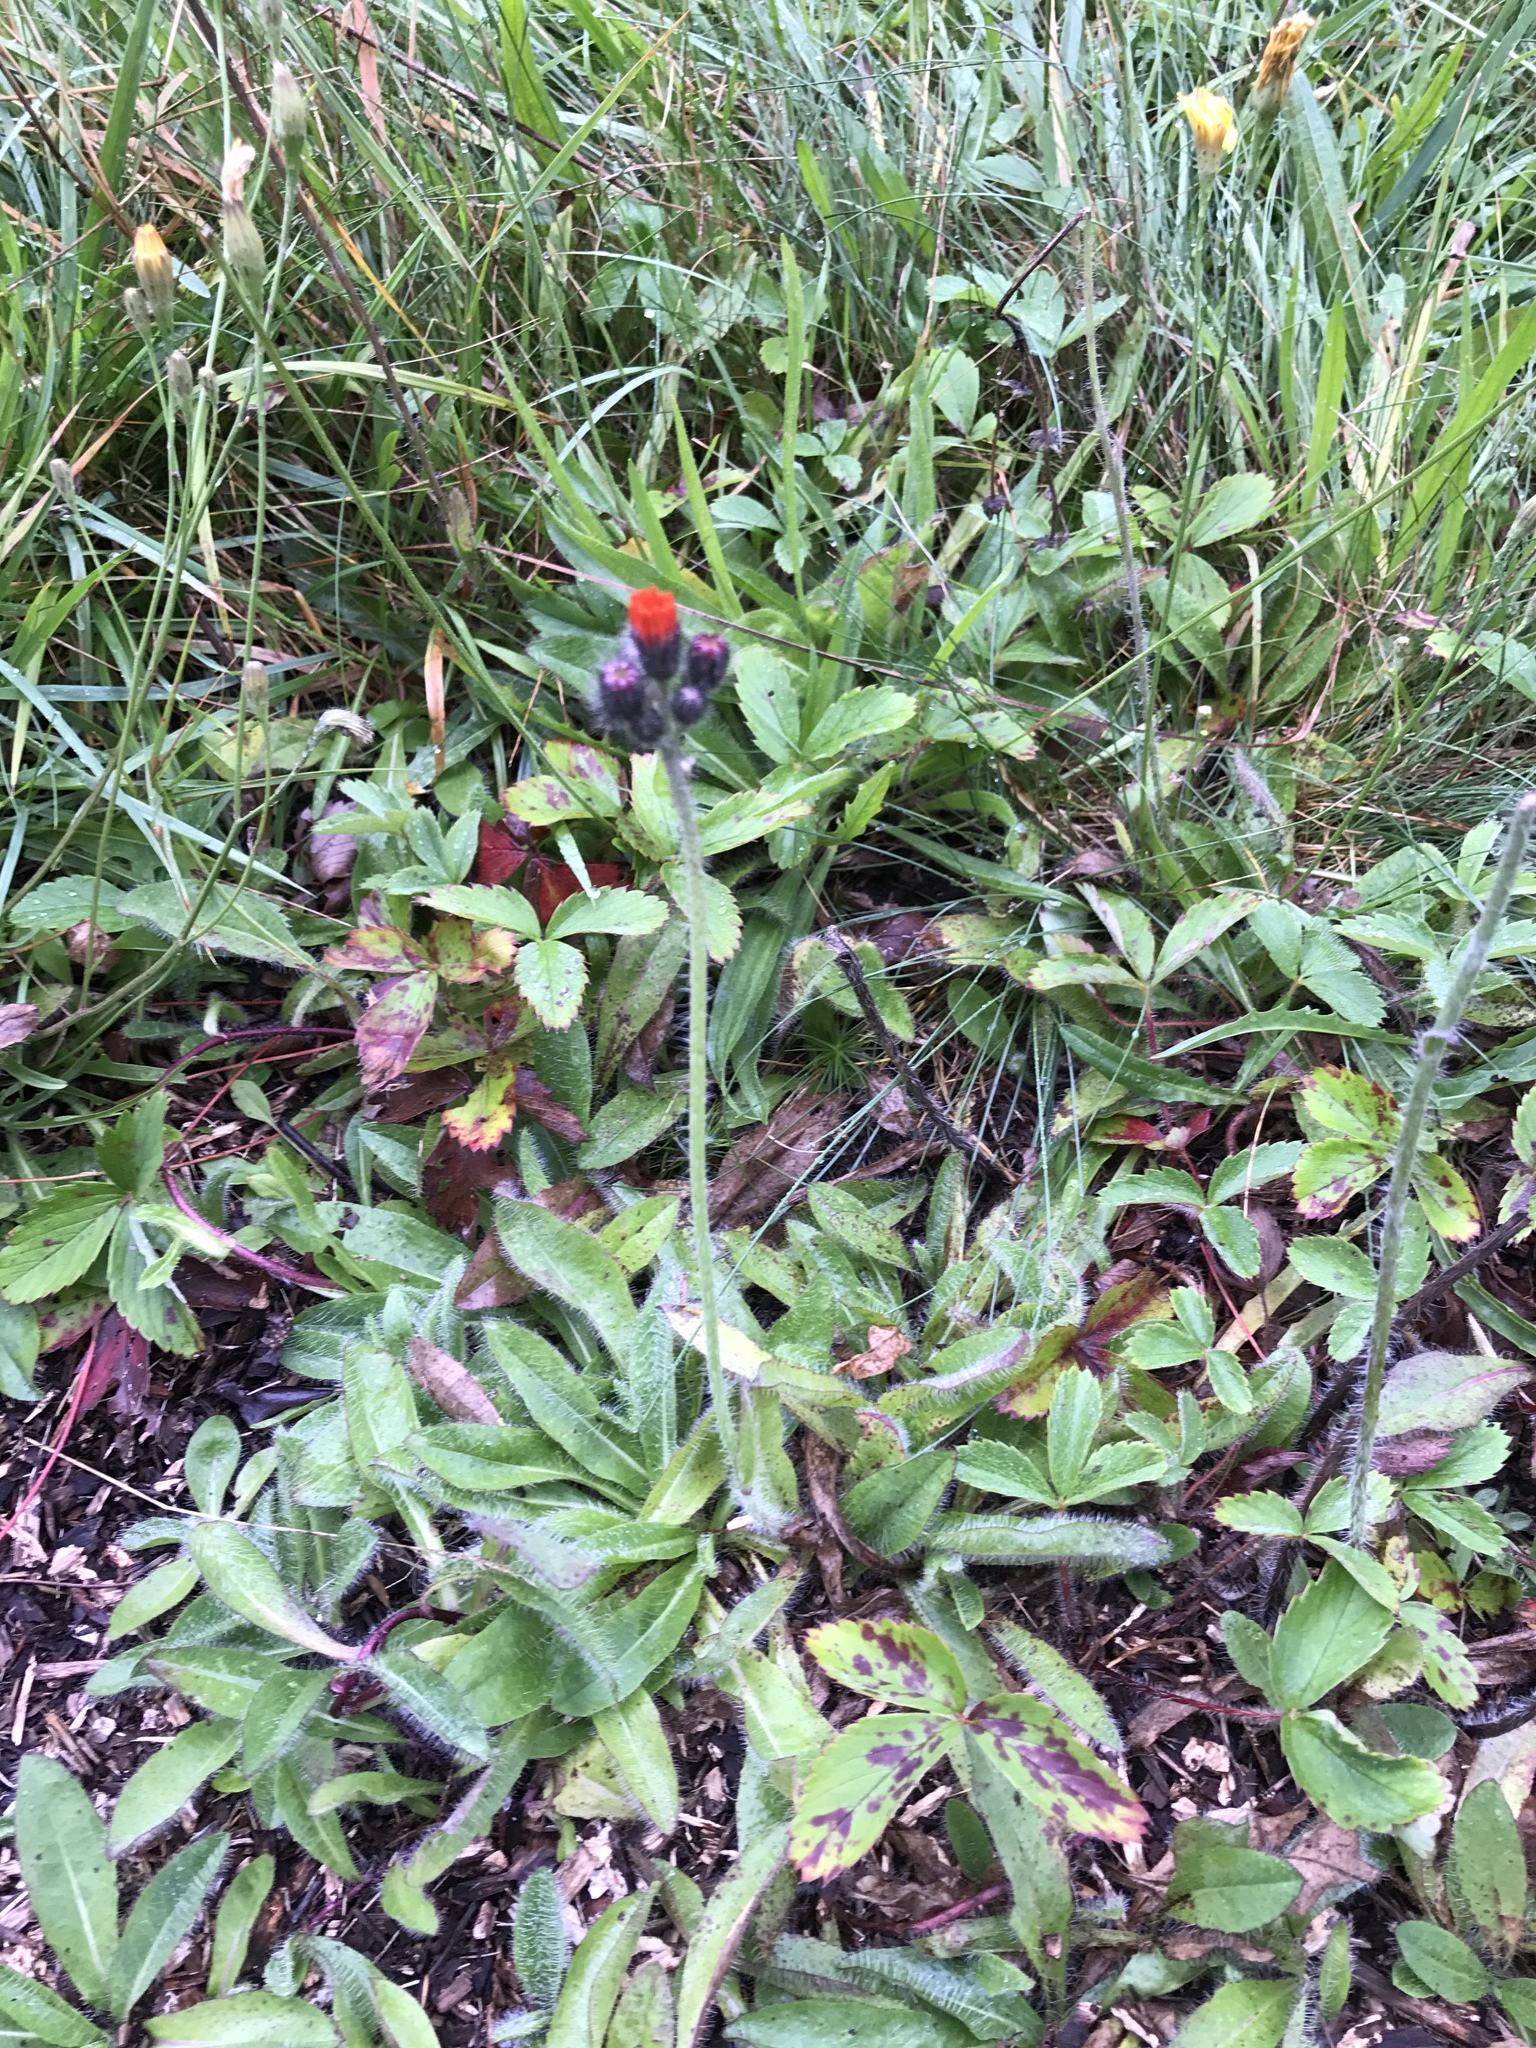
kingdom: Plantae
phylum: Tracheophyta
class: Magnoliopsida
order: Asterales
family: Asteraceae
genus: Pilosella
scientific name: Pilosella aurantiaca
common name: Fox-and-cubs
